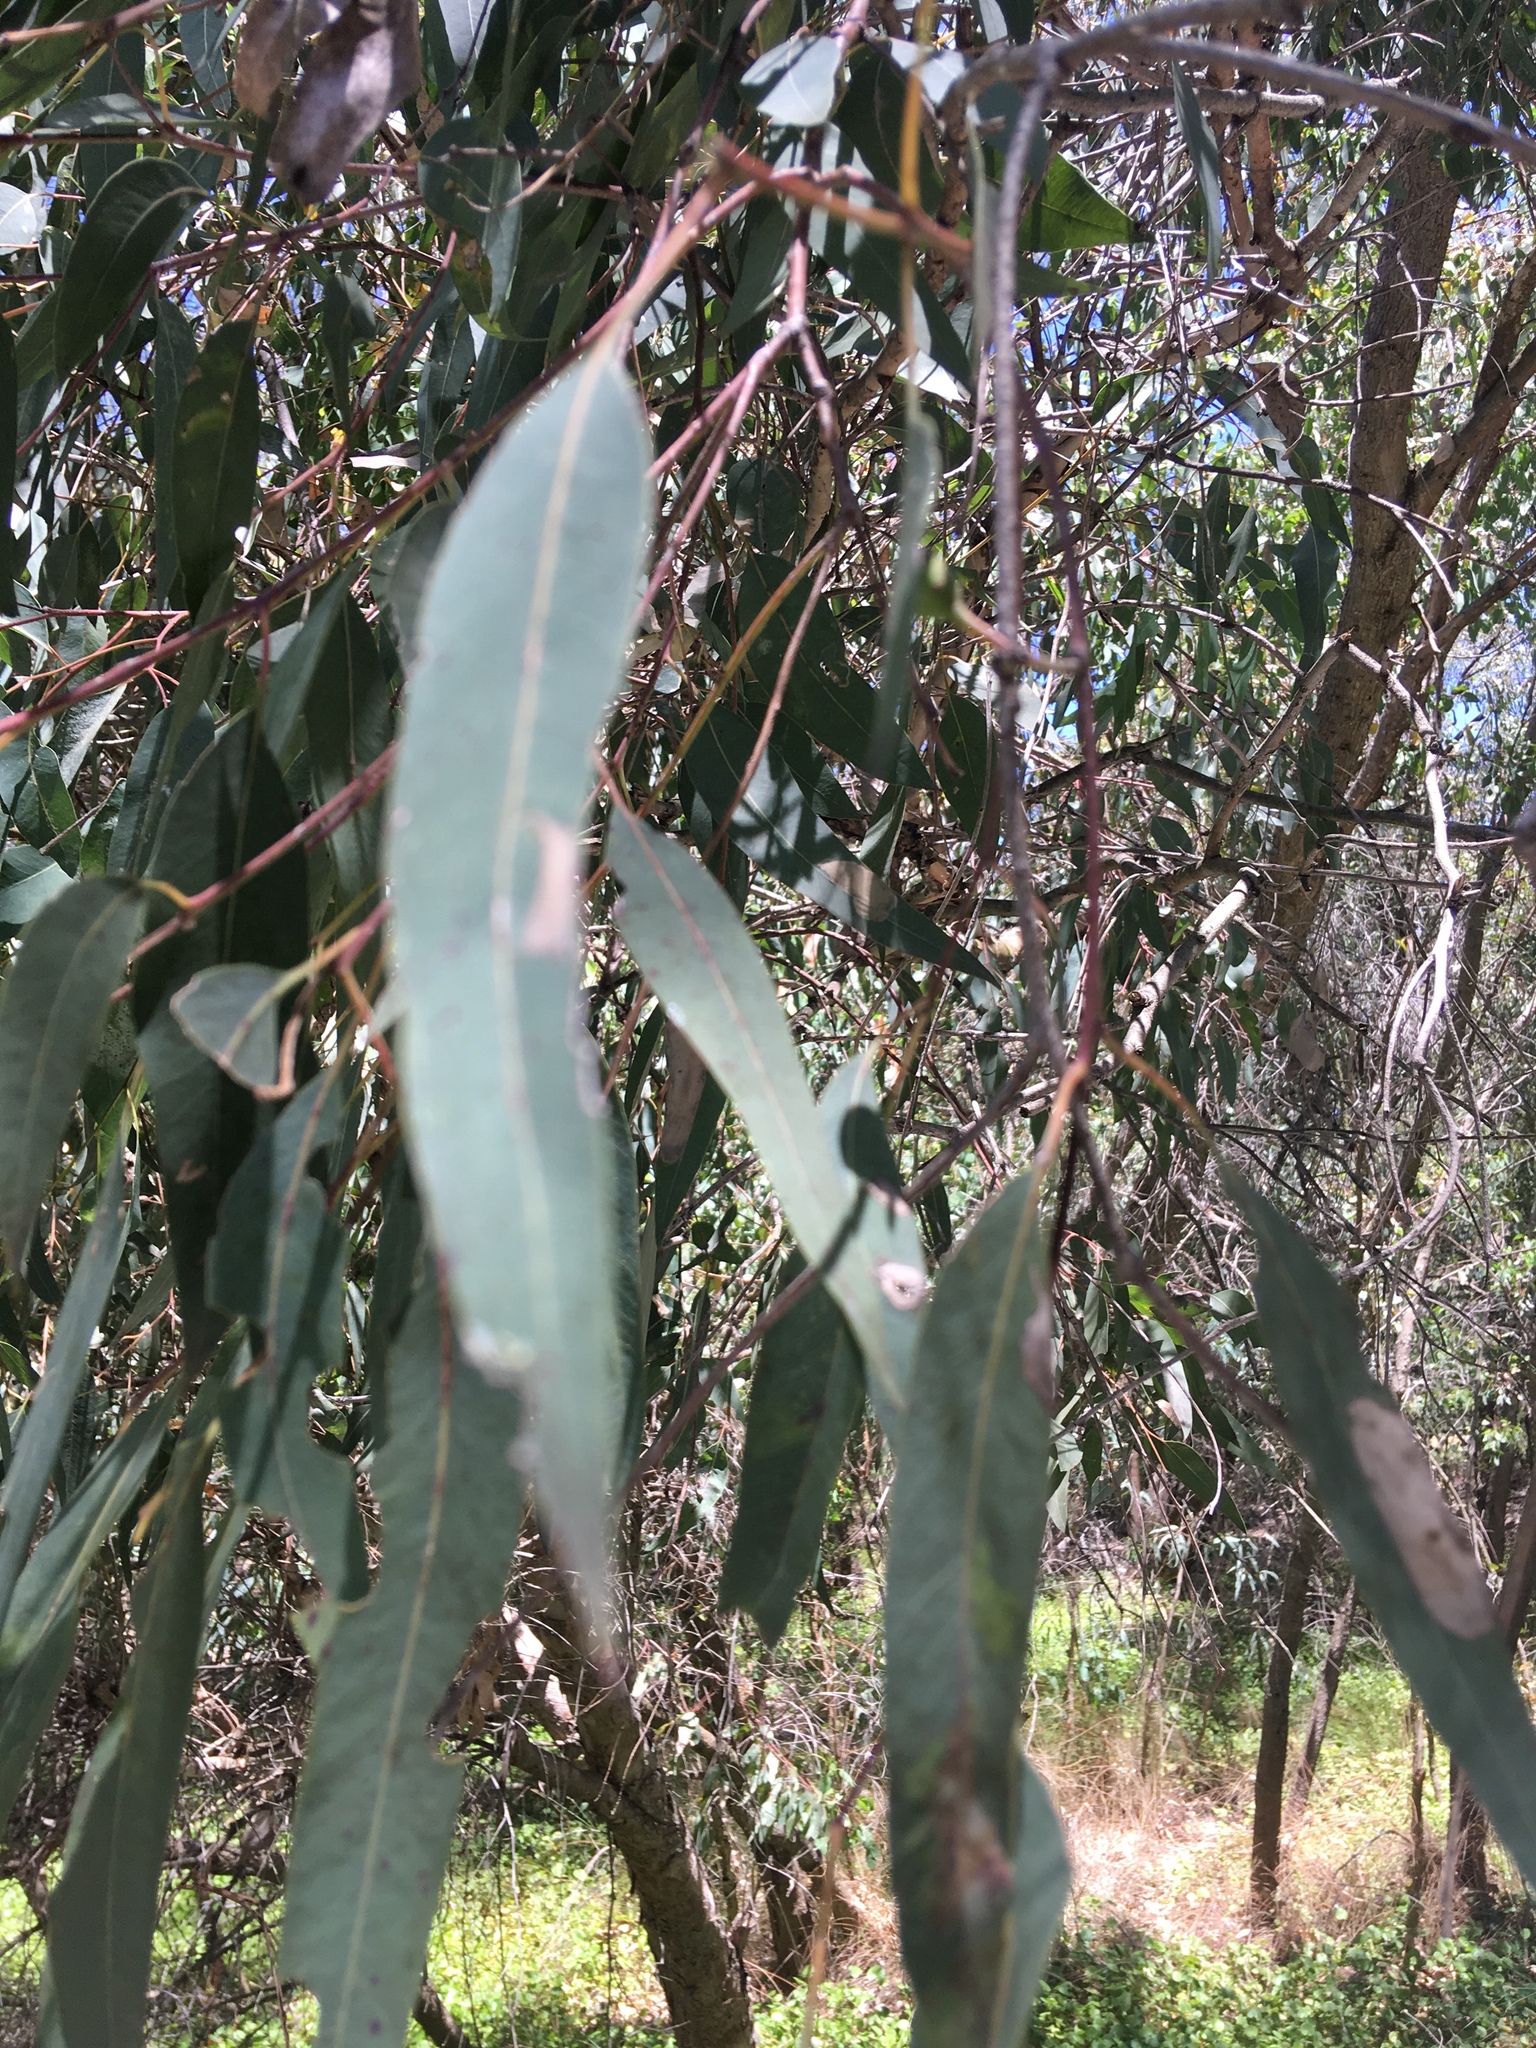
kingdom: Plantae
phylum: Tracheophyta
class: Magnoliopsida
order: Myrtales
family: Myrtaceae
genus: Eucalyptus
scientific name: Eucalyptus rudis
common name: Flooded gum
